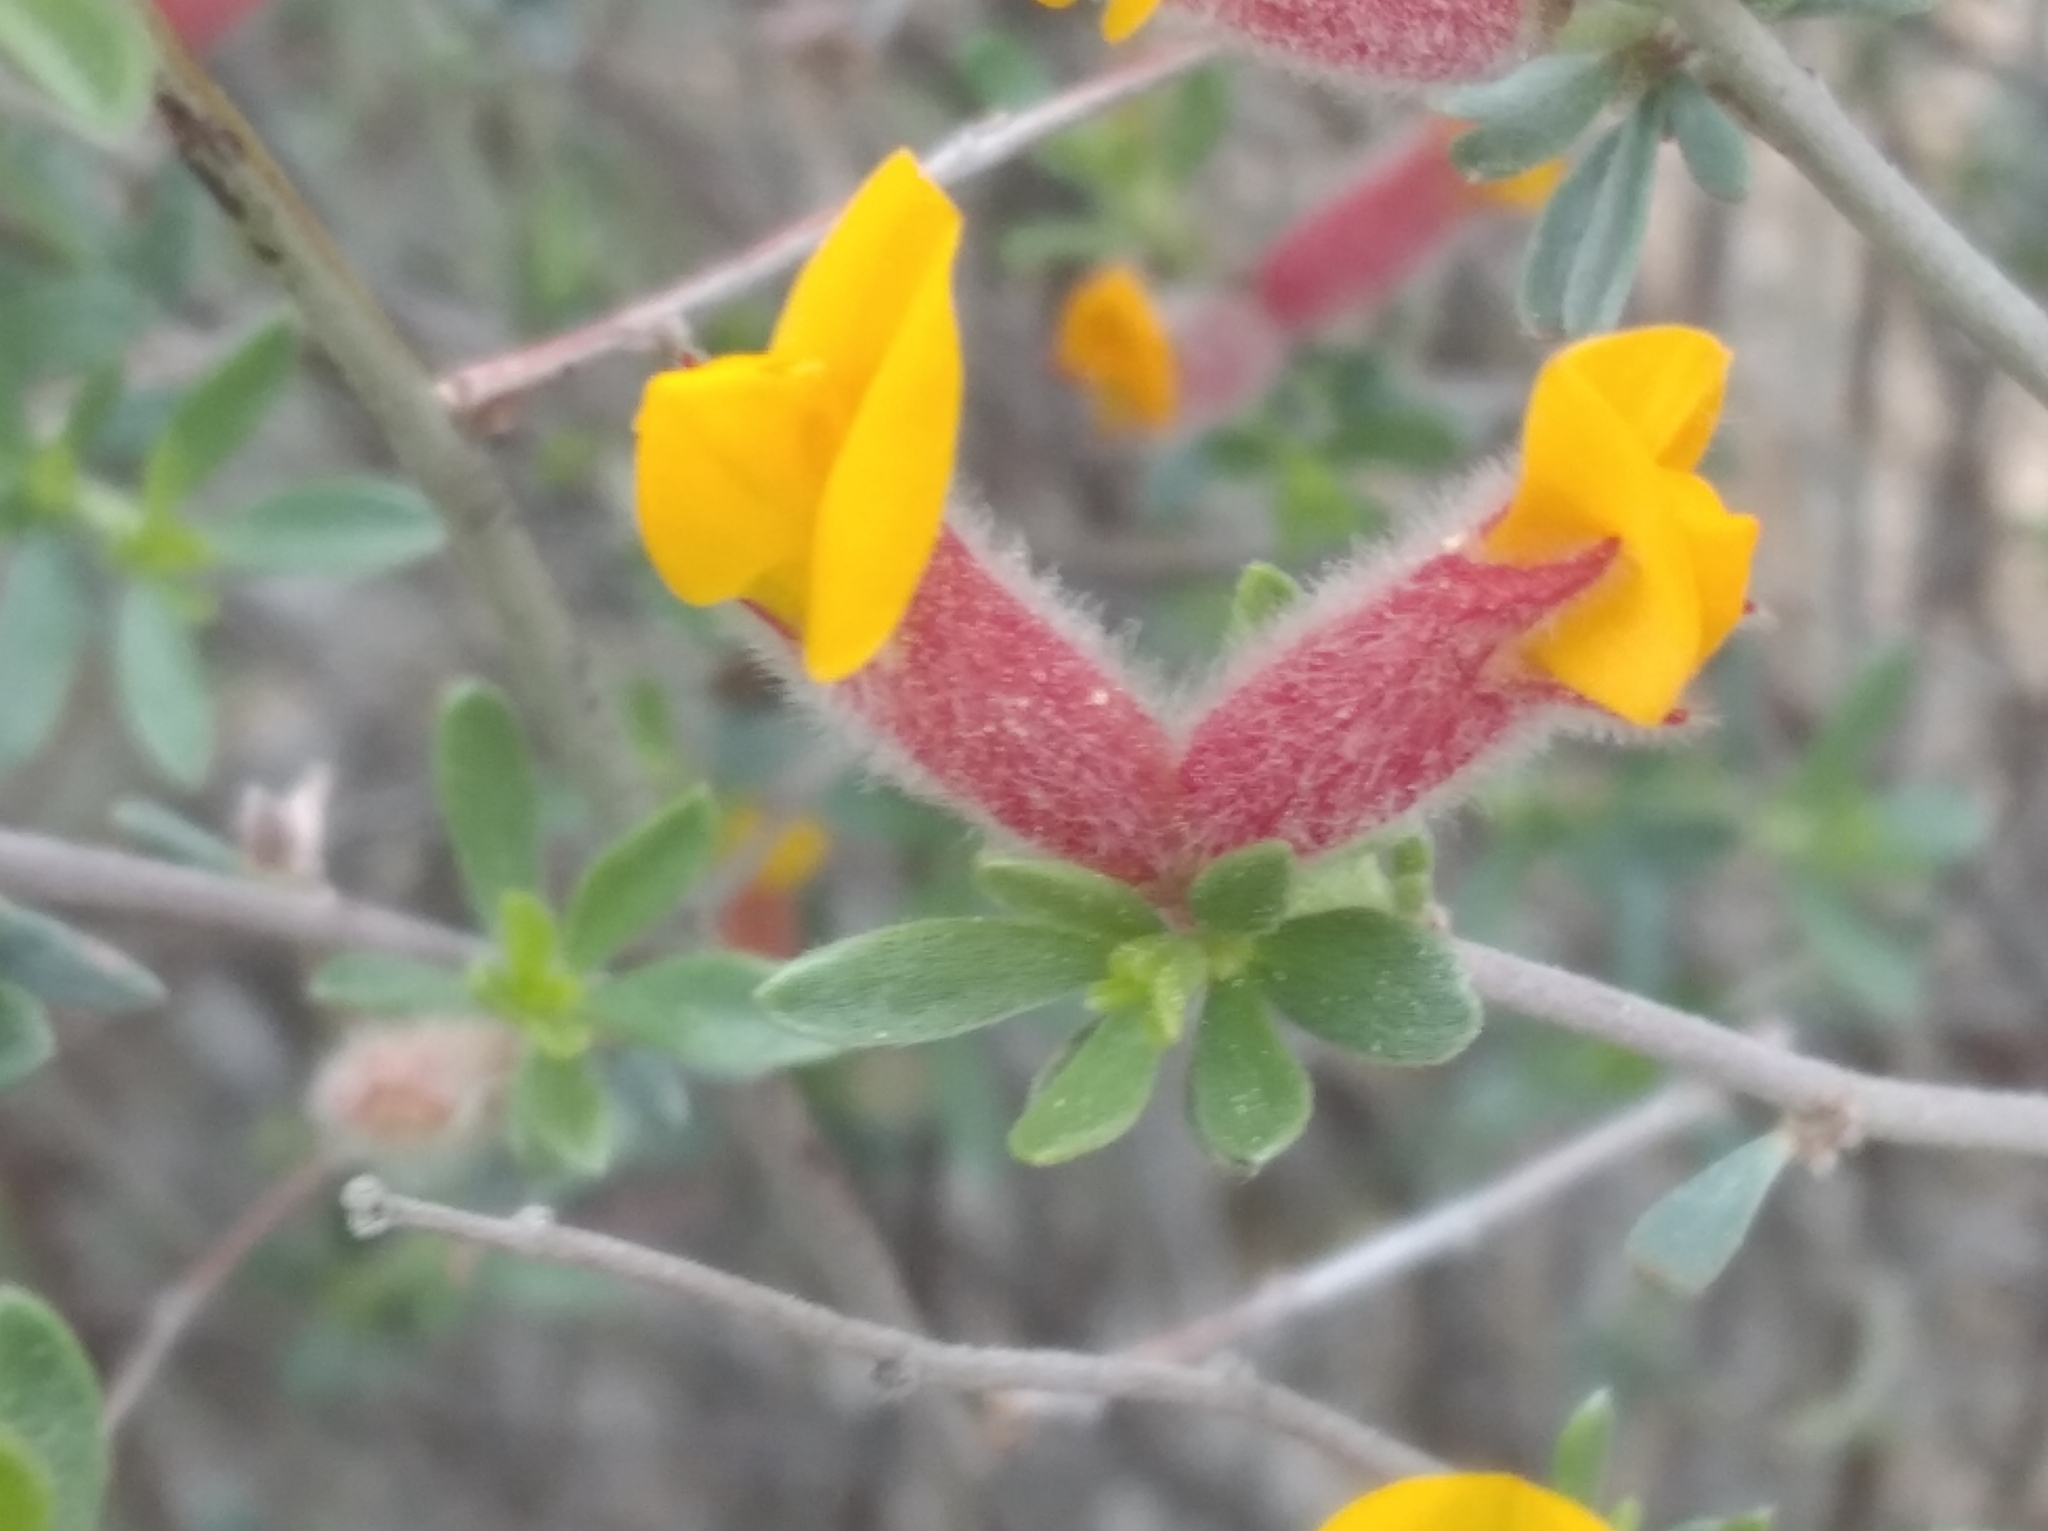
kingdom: Plantae
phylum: Tracheophyta
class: Magnoliopsida
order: Fabales
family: Fabaceae
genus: Cytisopsis
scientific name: Cytisopsis pseudocytisus
